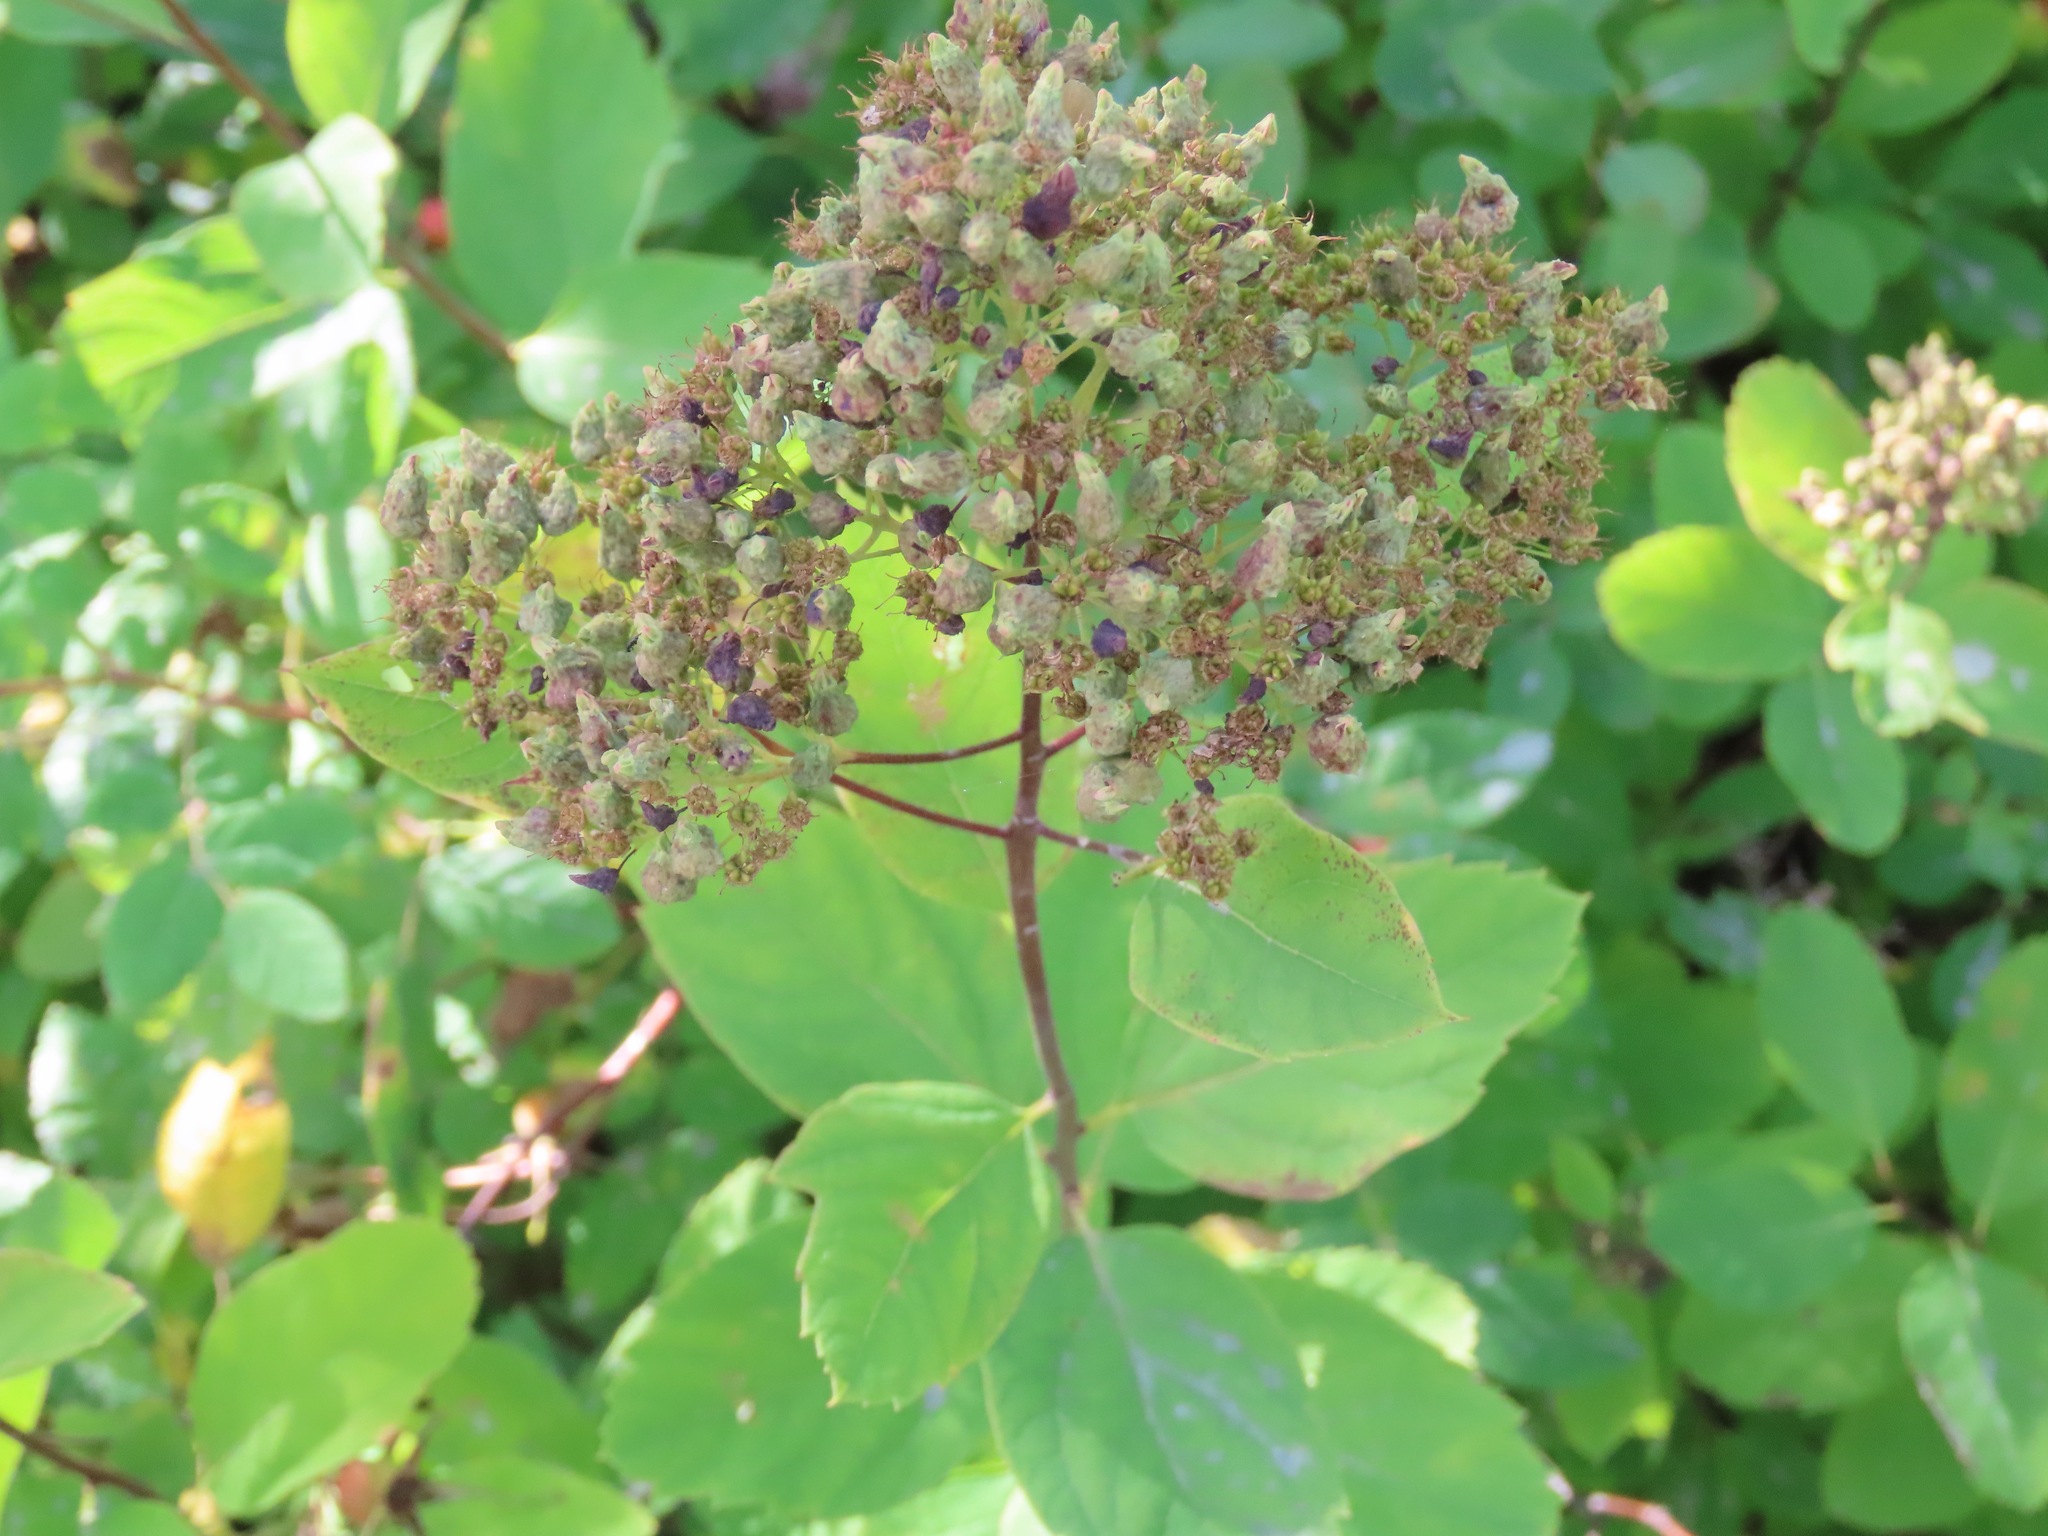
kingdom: Plantae
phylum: Tracheophyta
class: Magnoliopsida
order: Rosales
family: Rosaceae
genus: Spiraea
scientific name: Spiraea lucida
